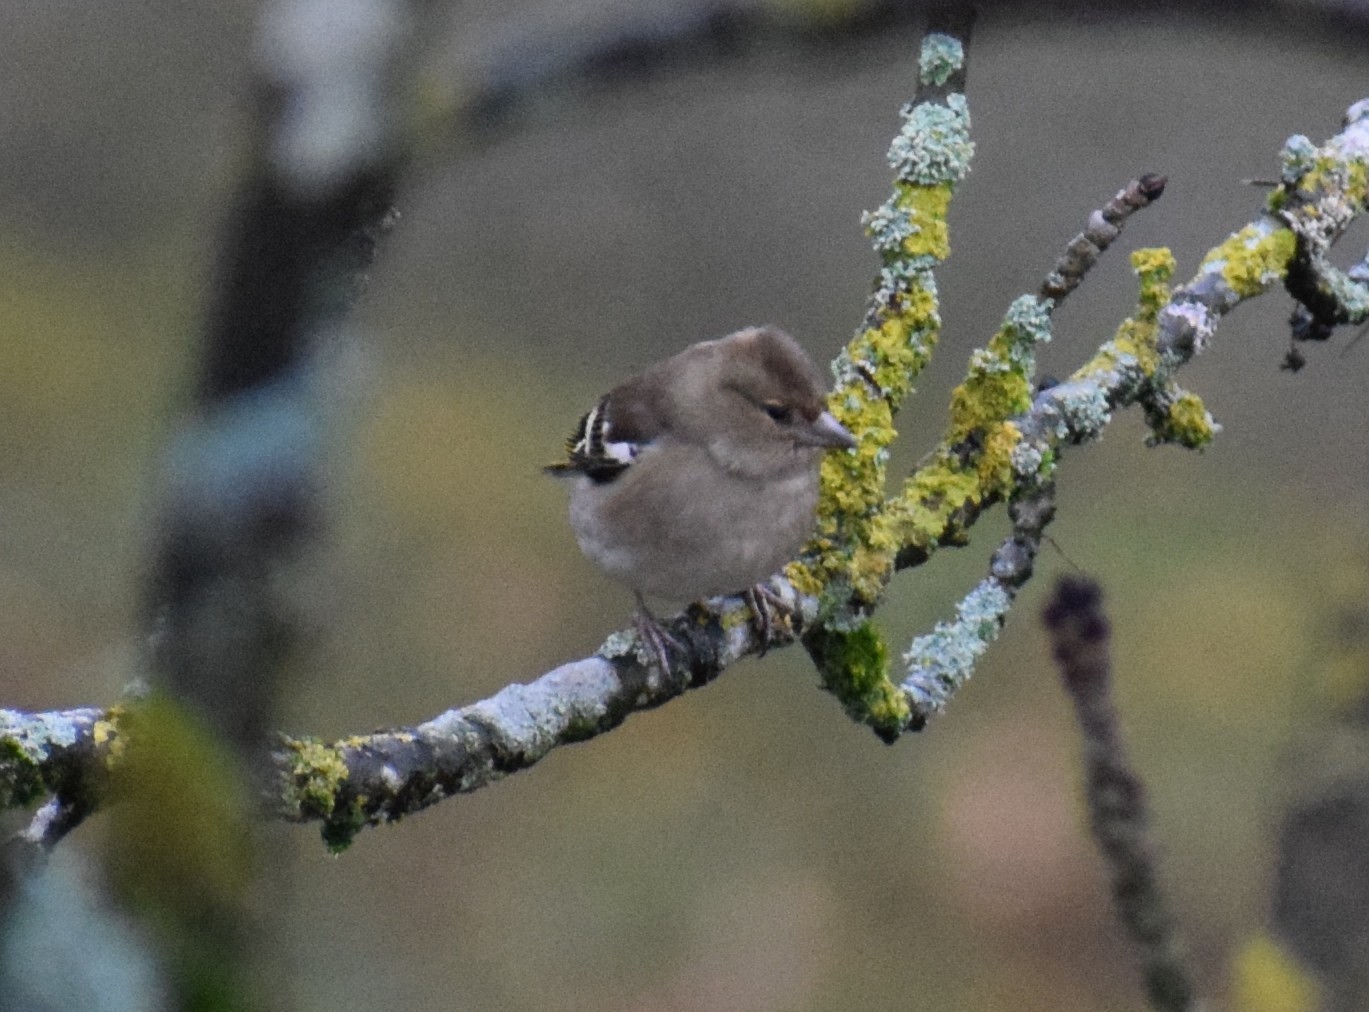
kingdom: Animalia
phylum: Chordata
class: Aves
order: Passeriformes
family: Fringillidae
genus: Fringilla
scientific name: Fringilla coelebs
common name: Common chaffinch
